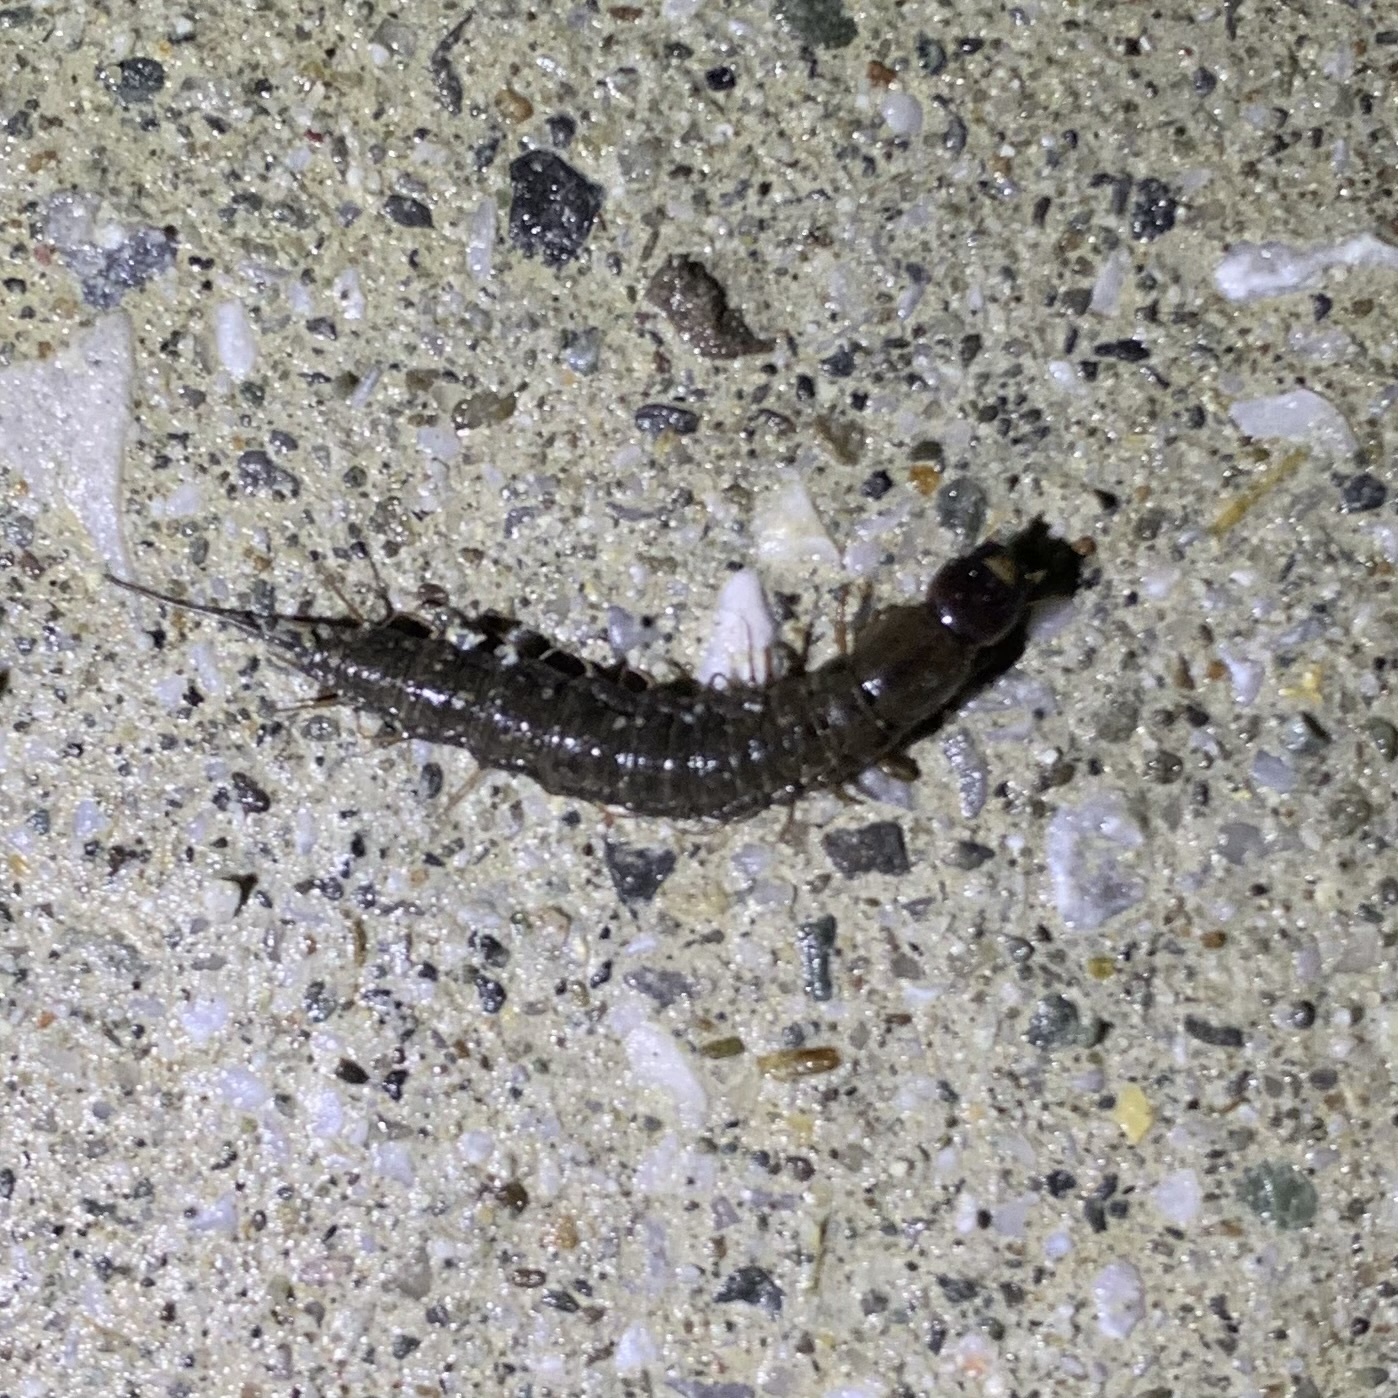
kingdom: Animalia
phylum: Arthropoda
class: Insecta
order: Megaloptera
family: Corydalidae
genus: Chauliodes
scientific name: Chauliodes
